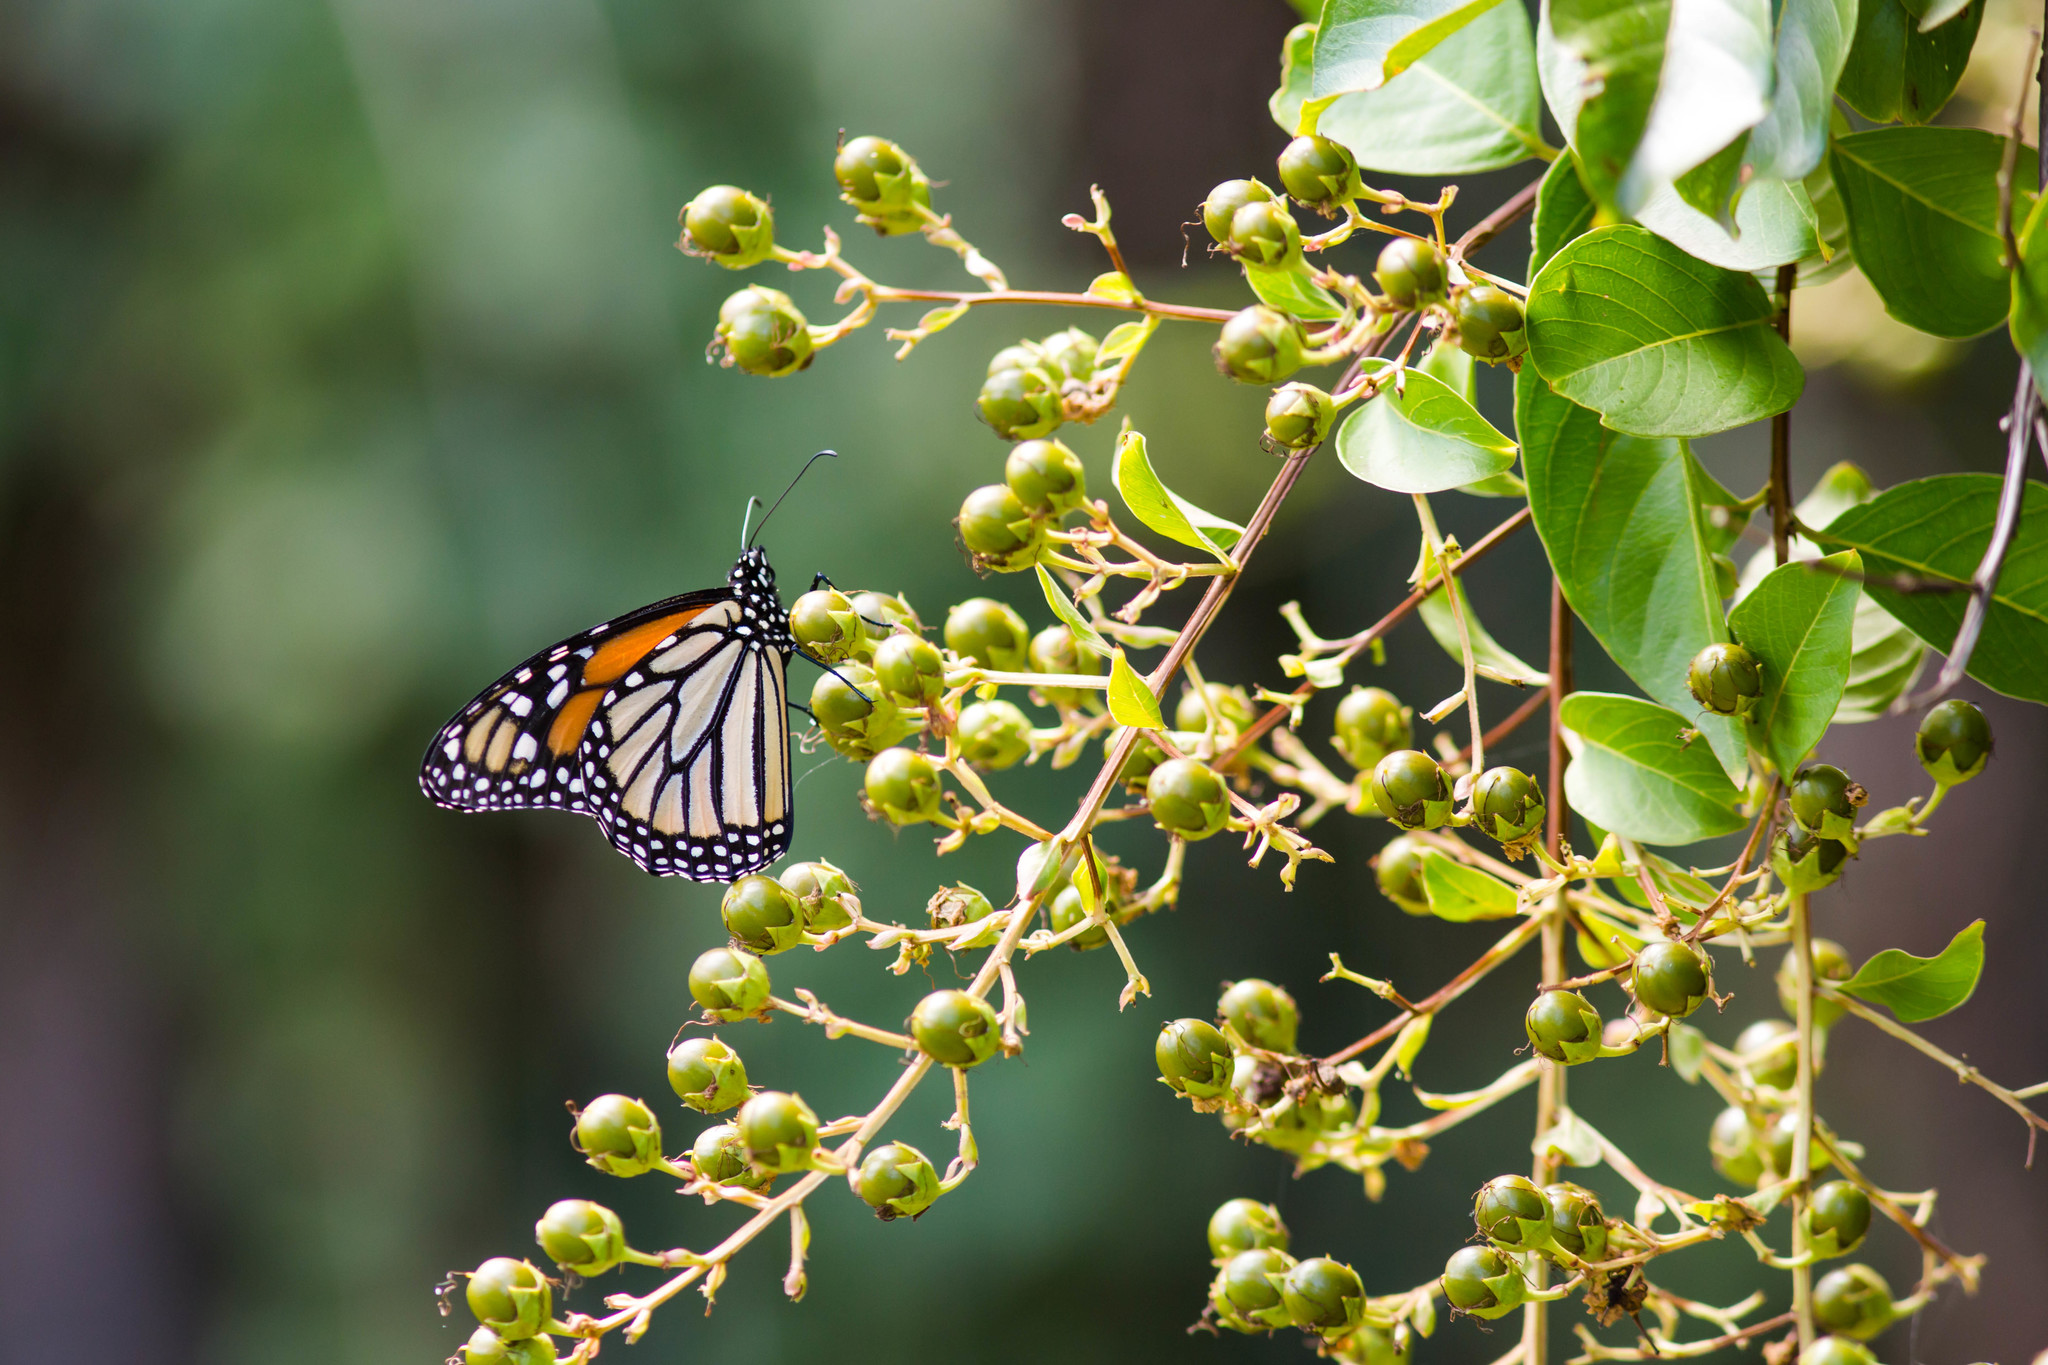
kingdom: Animalia
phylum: Arthropoda
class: Insecta
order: Lepidoptera
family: Nymphalidae
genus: Danaus
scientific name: Danaus plexippus
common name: Monarch
